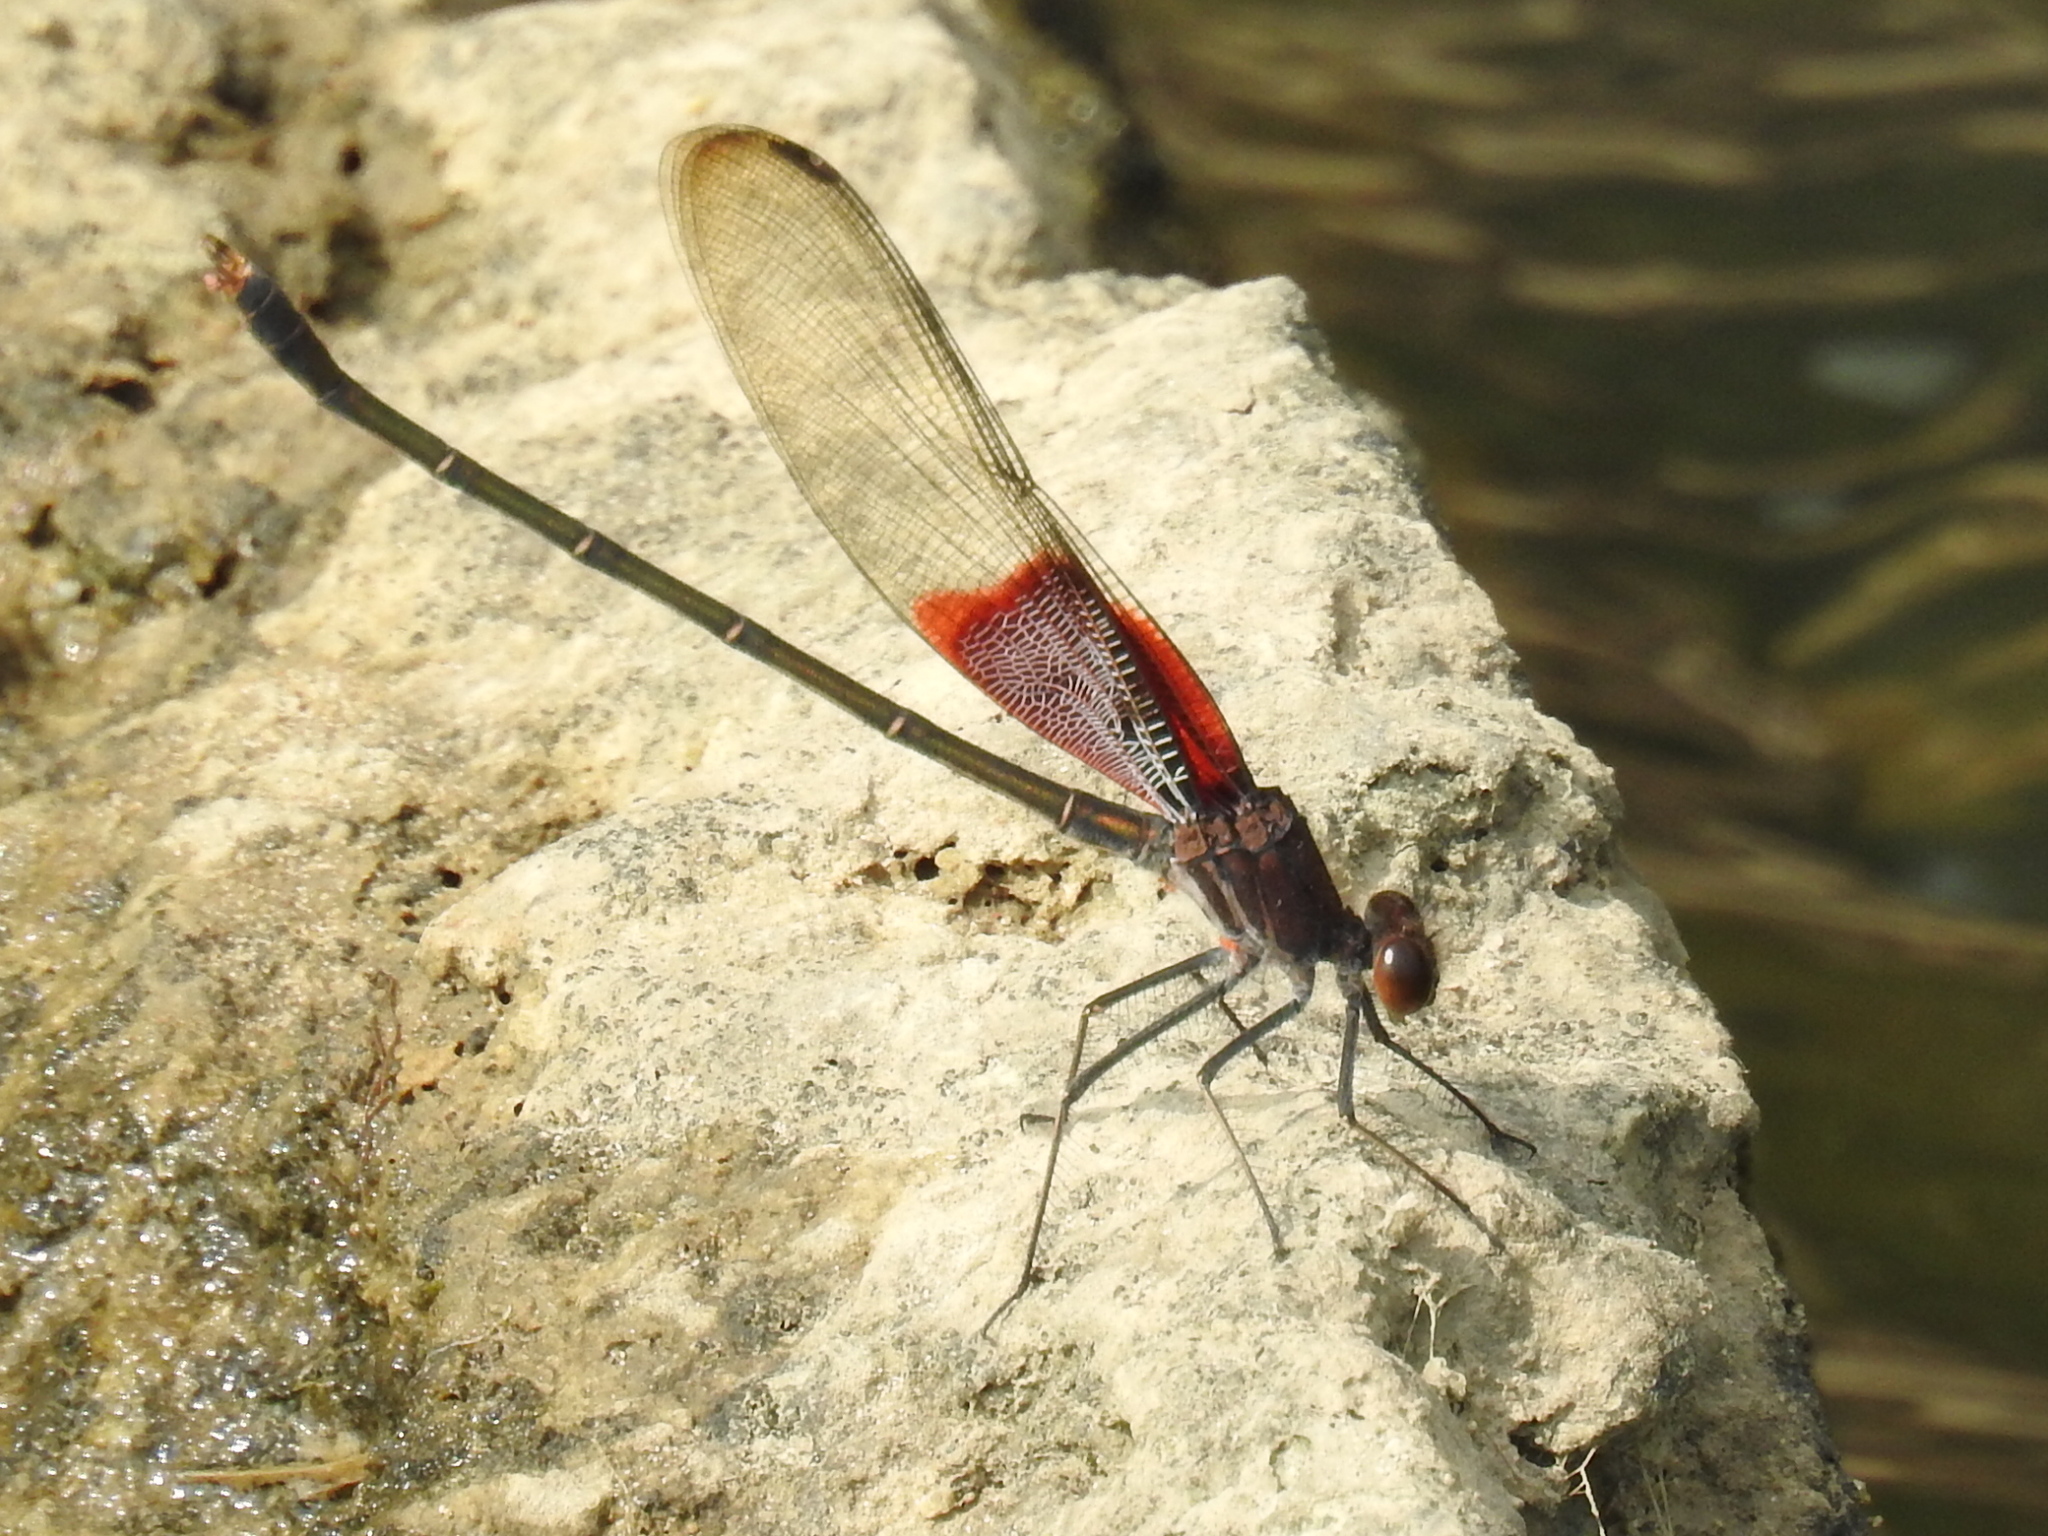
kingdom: Animalia
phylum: Arthropoda
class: Insecta
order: Odonata
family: Calopterygidae
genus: Hetaerina
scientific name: Hetaerina americana
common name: American rubyspot
